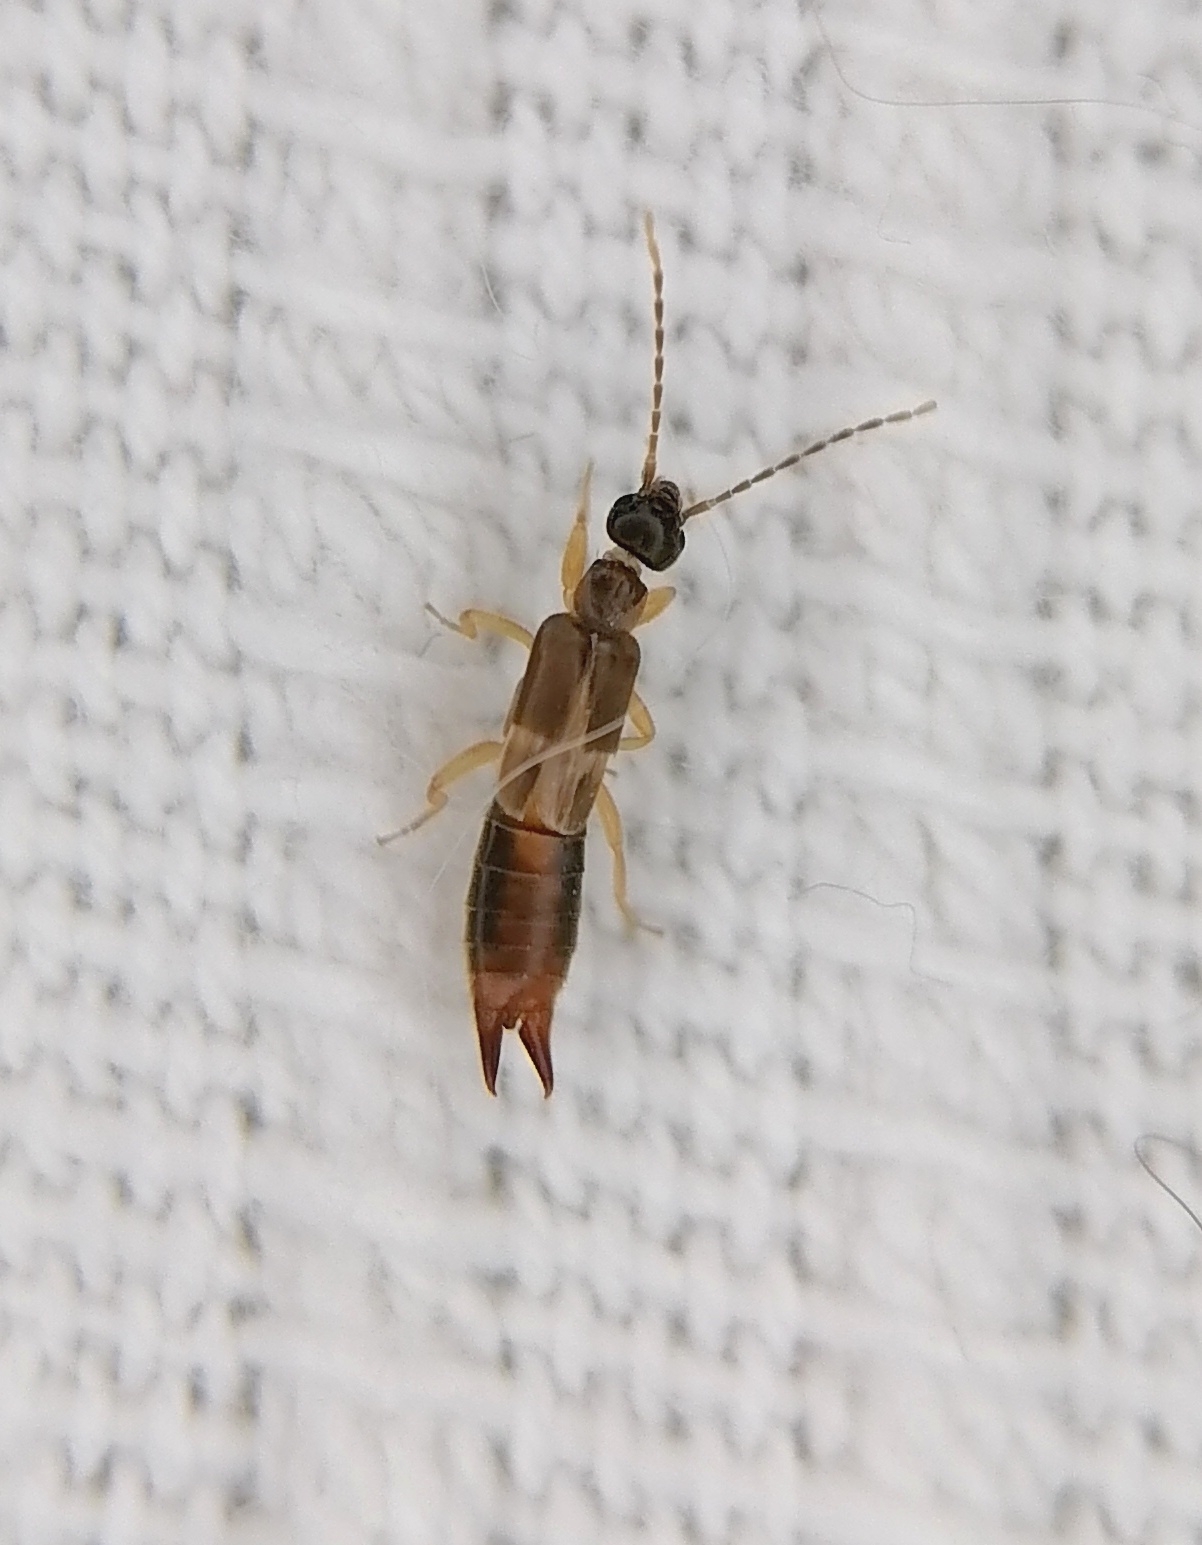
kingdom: Animalia
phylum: Arthropoda
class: Insecta
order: Dermaptera
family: Spongiphoridae
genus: Labia
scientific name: Labia minor
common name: Lesser earwig
